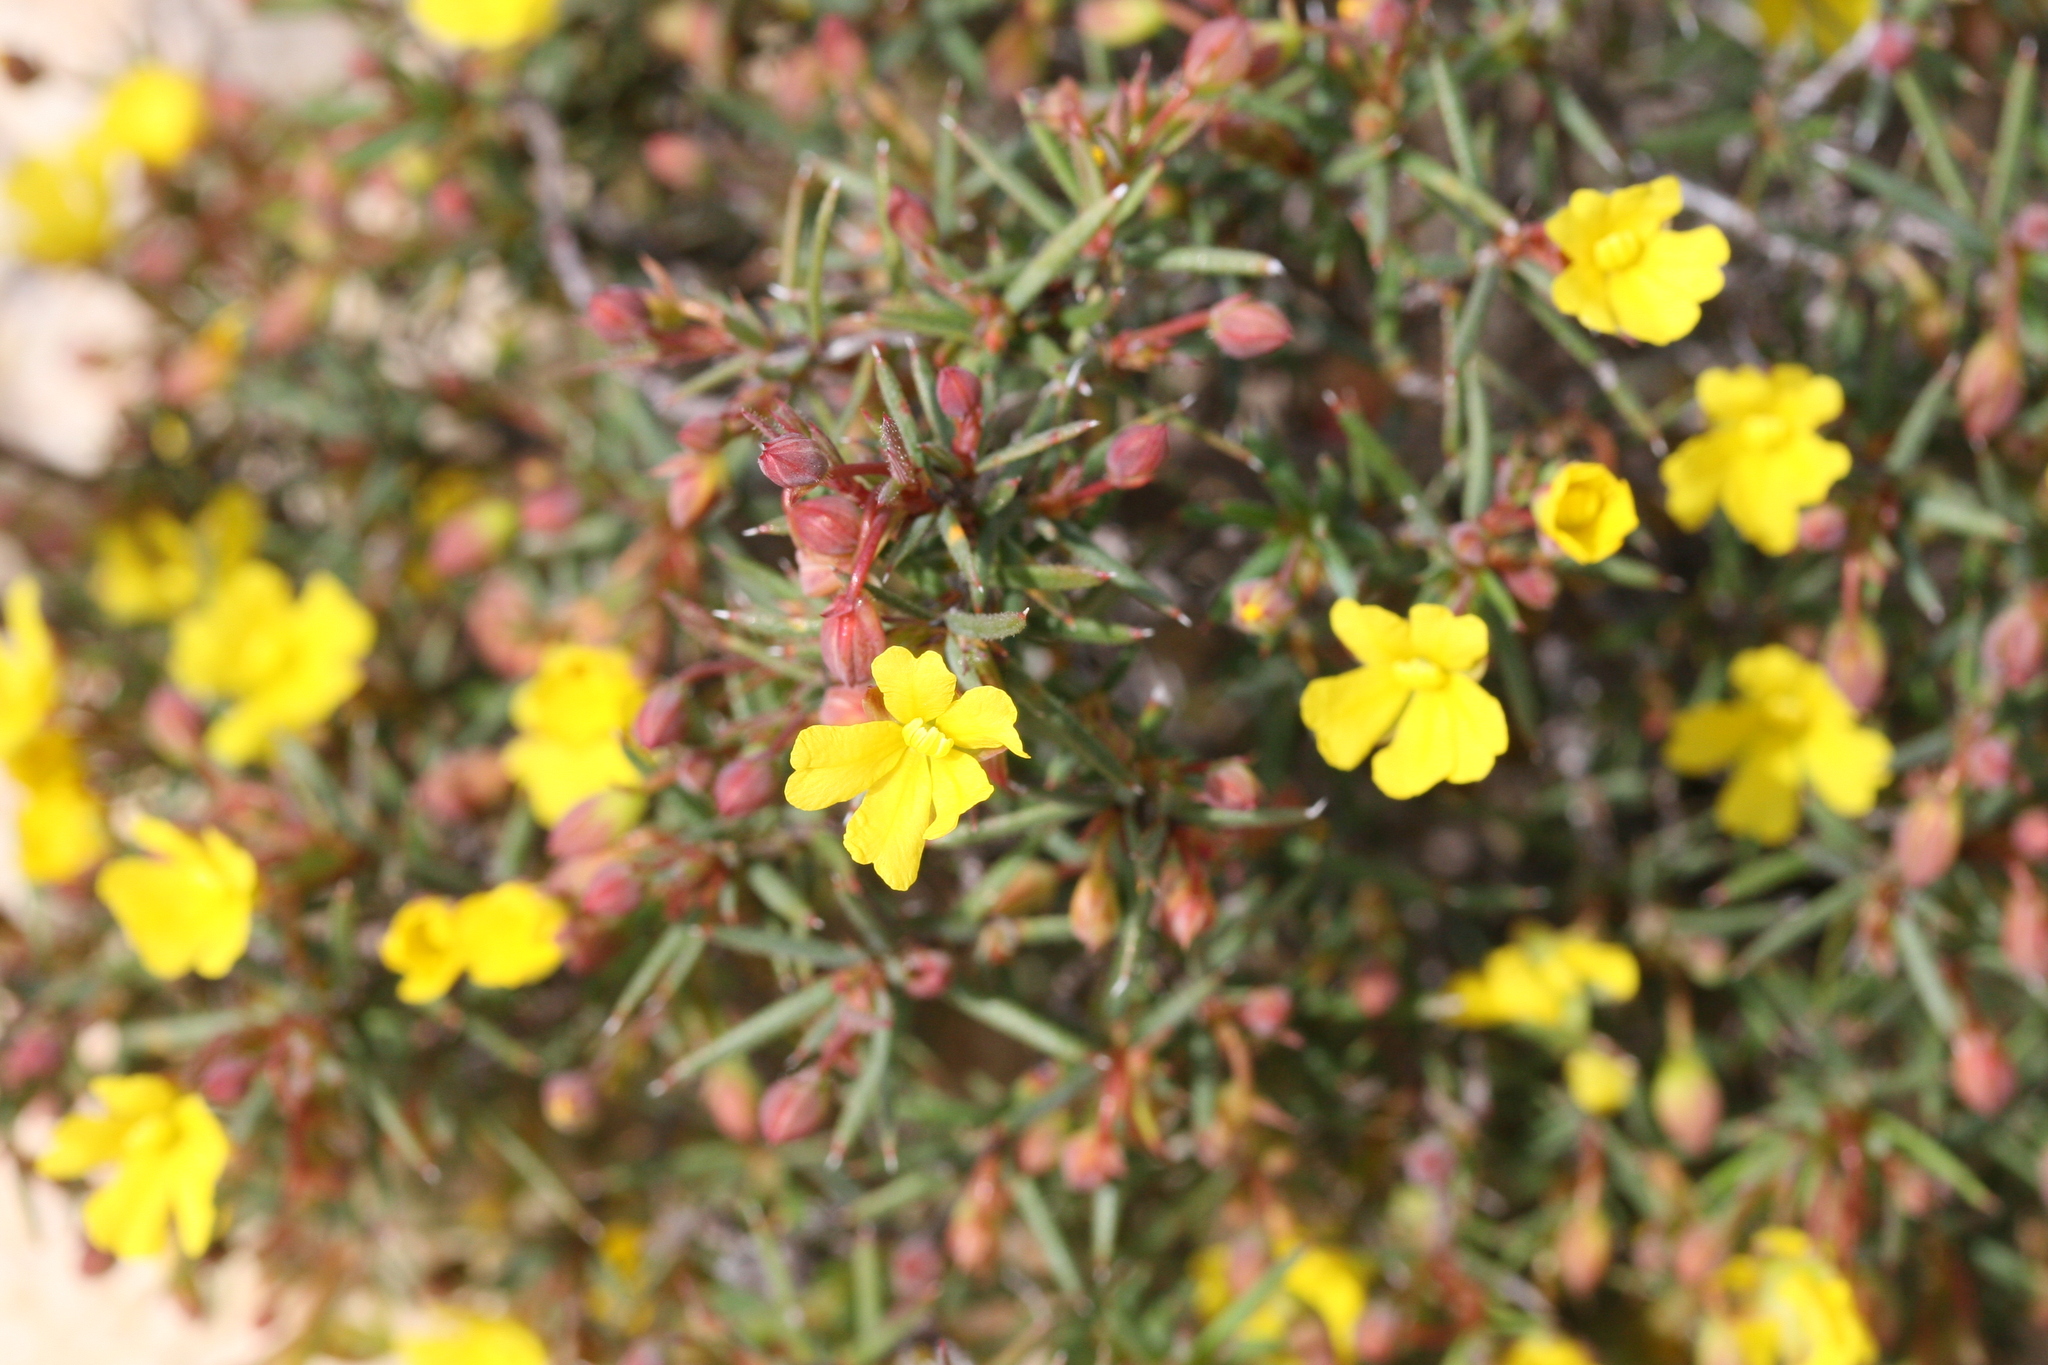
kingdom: Plantae
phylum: Tracheophyta
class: Magnoliopsida
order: Dilleniales
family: Dilleniaceae
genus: Hibbertia
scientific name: Hibbertia
